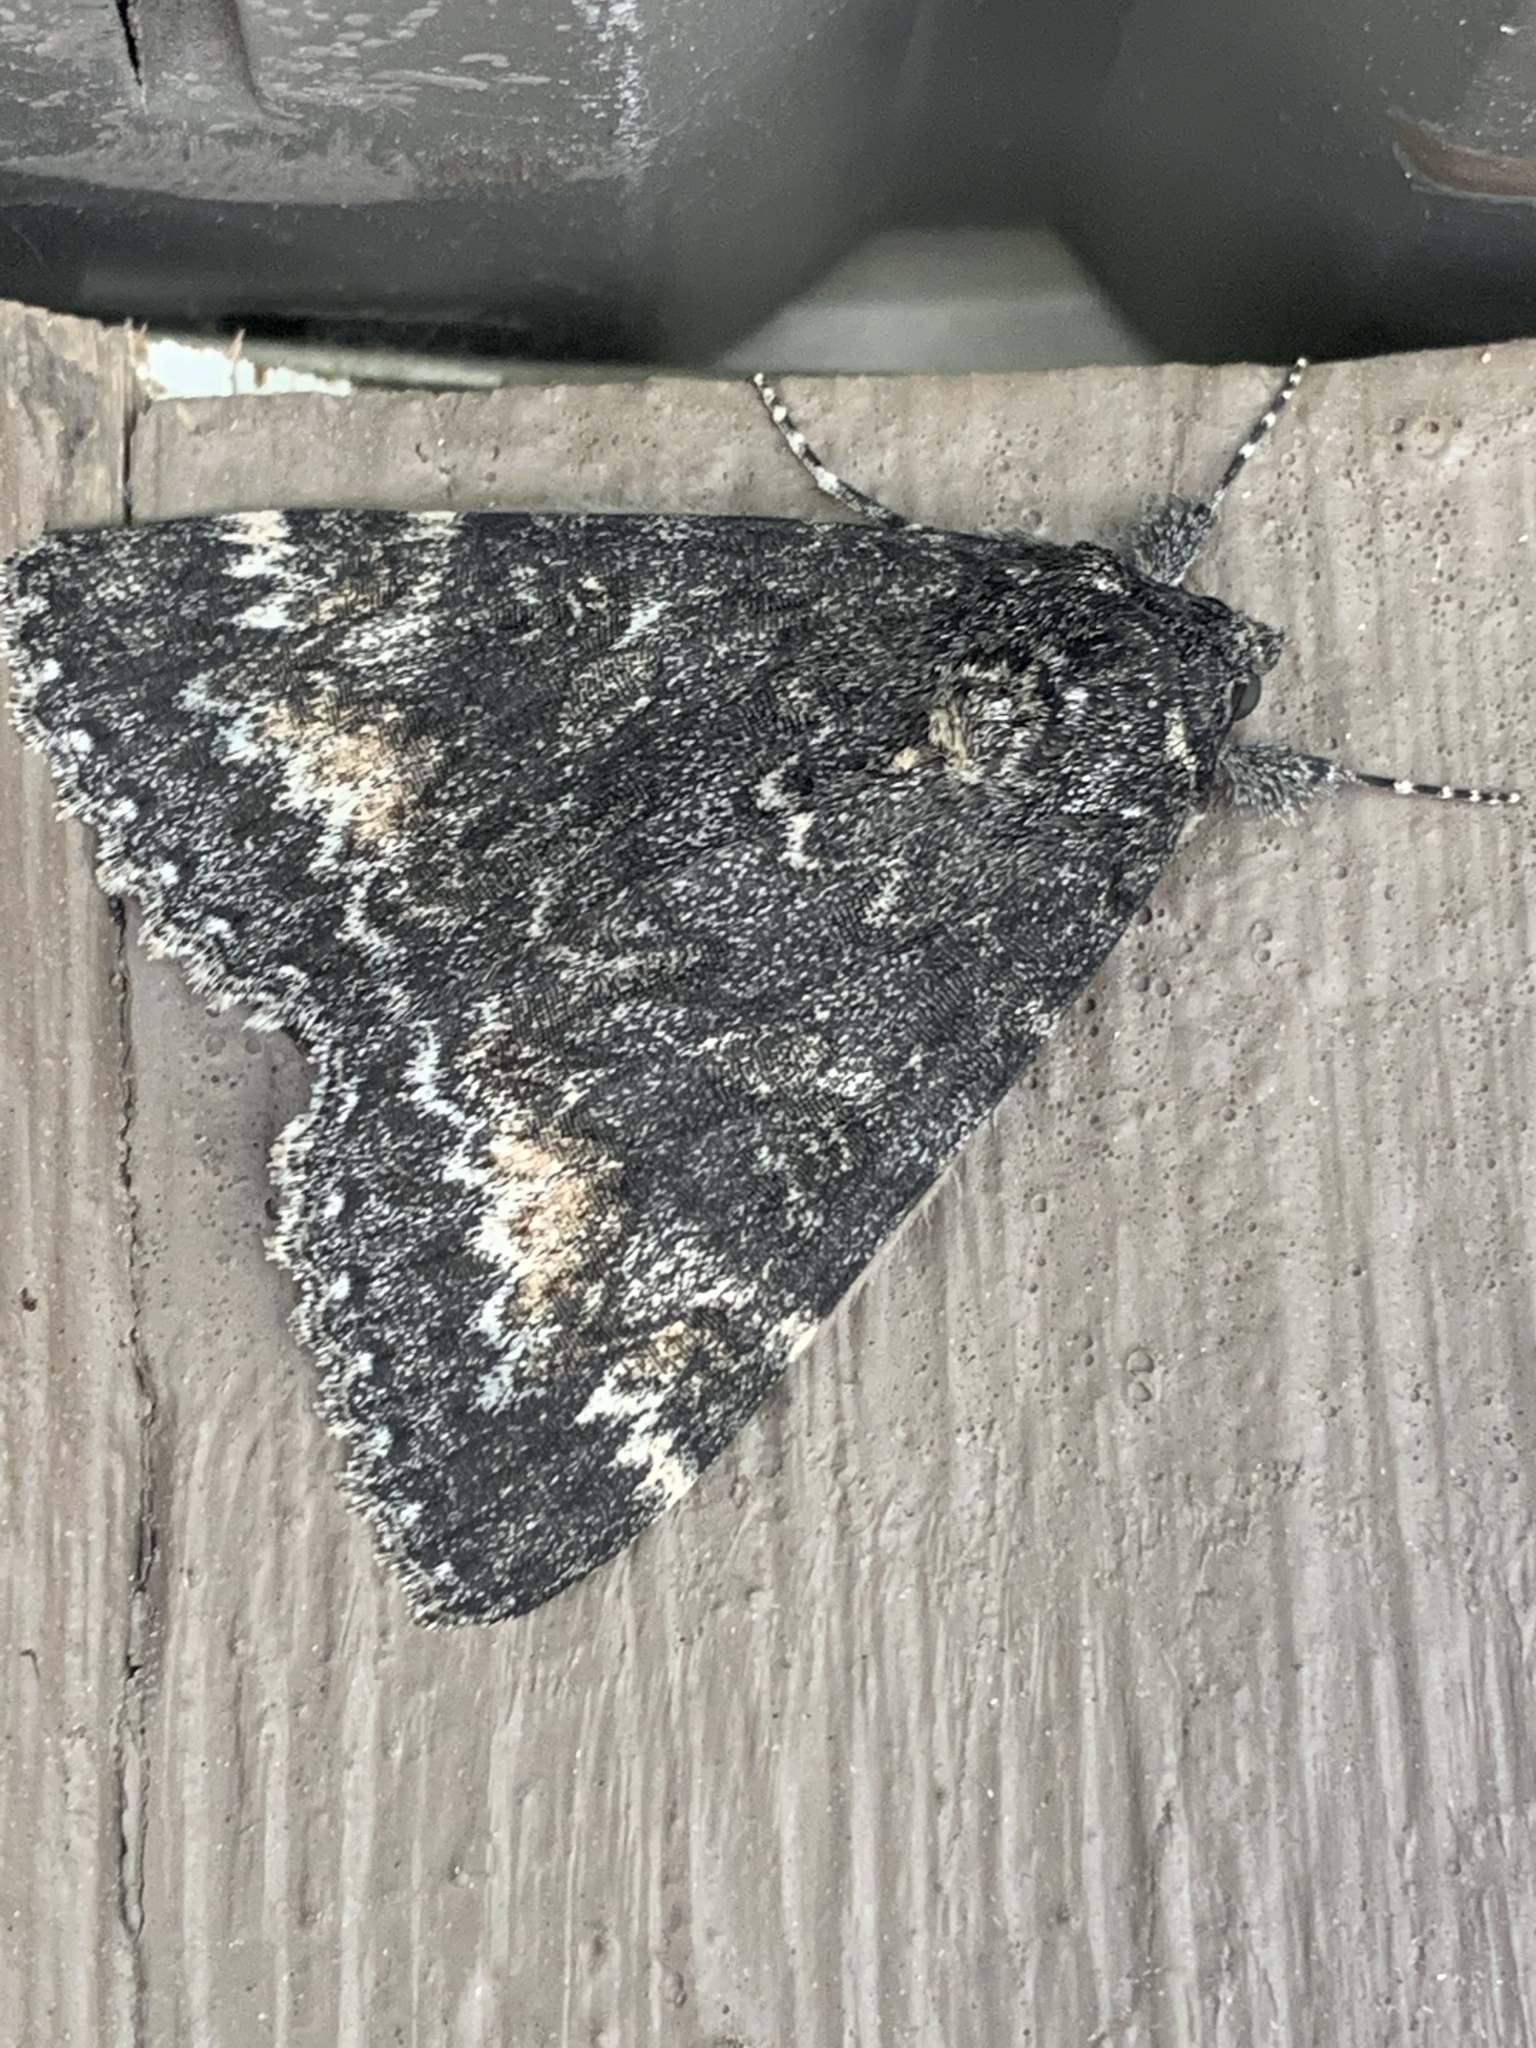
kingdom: Animalia
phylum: Arthropoda
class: Insecta
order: Lepidoptera
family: Erebidae
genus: Catocala
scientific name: Catocala briseis
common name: Briseis underwing
